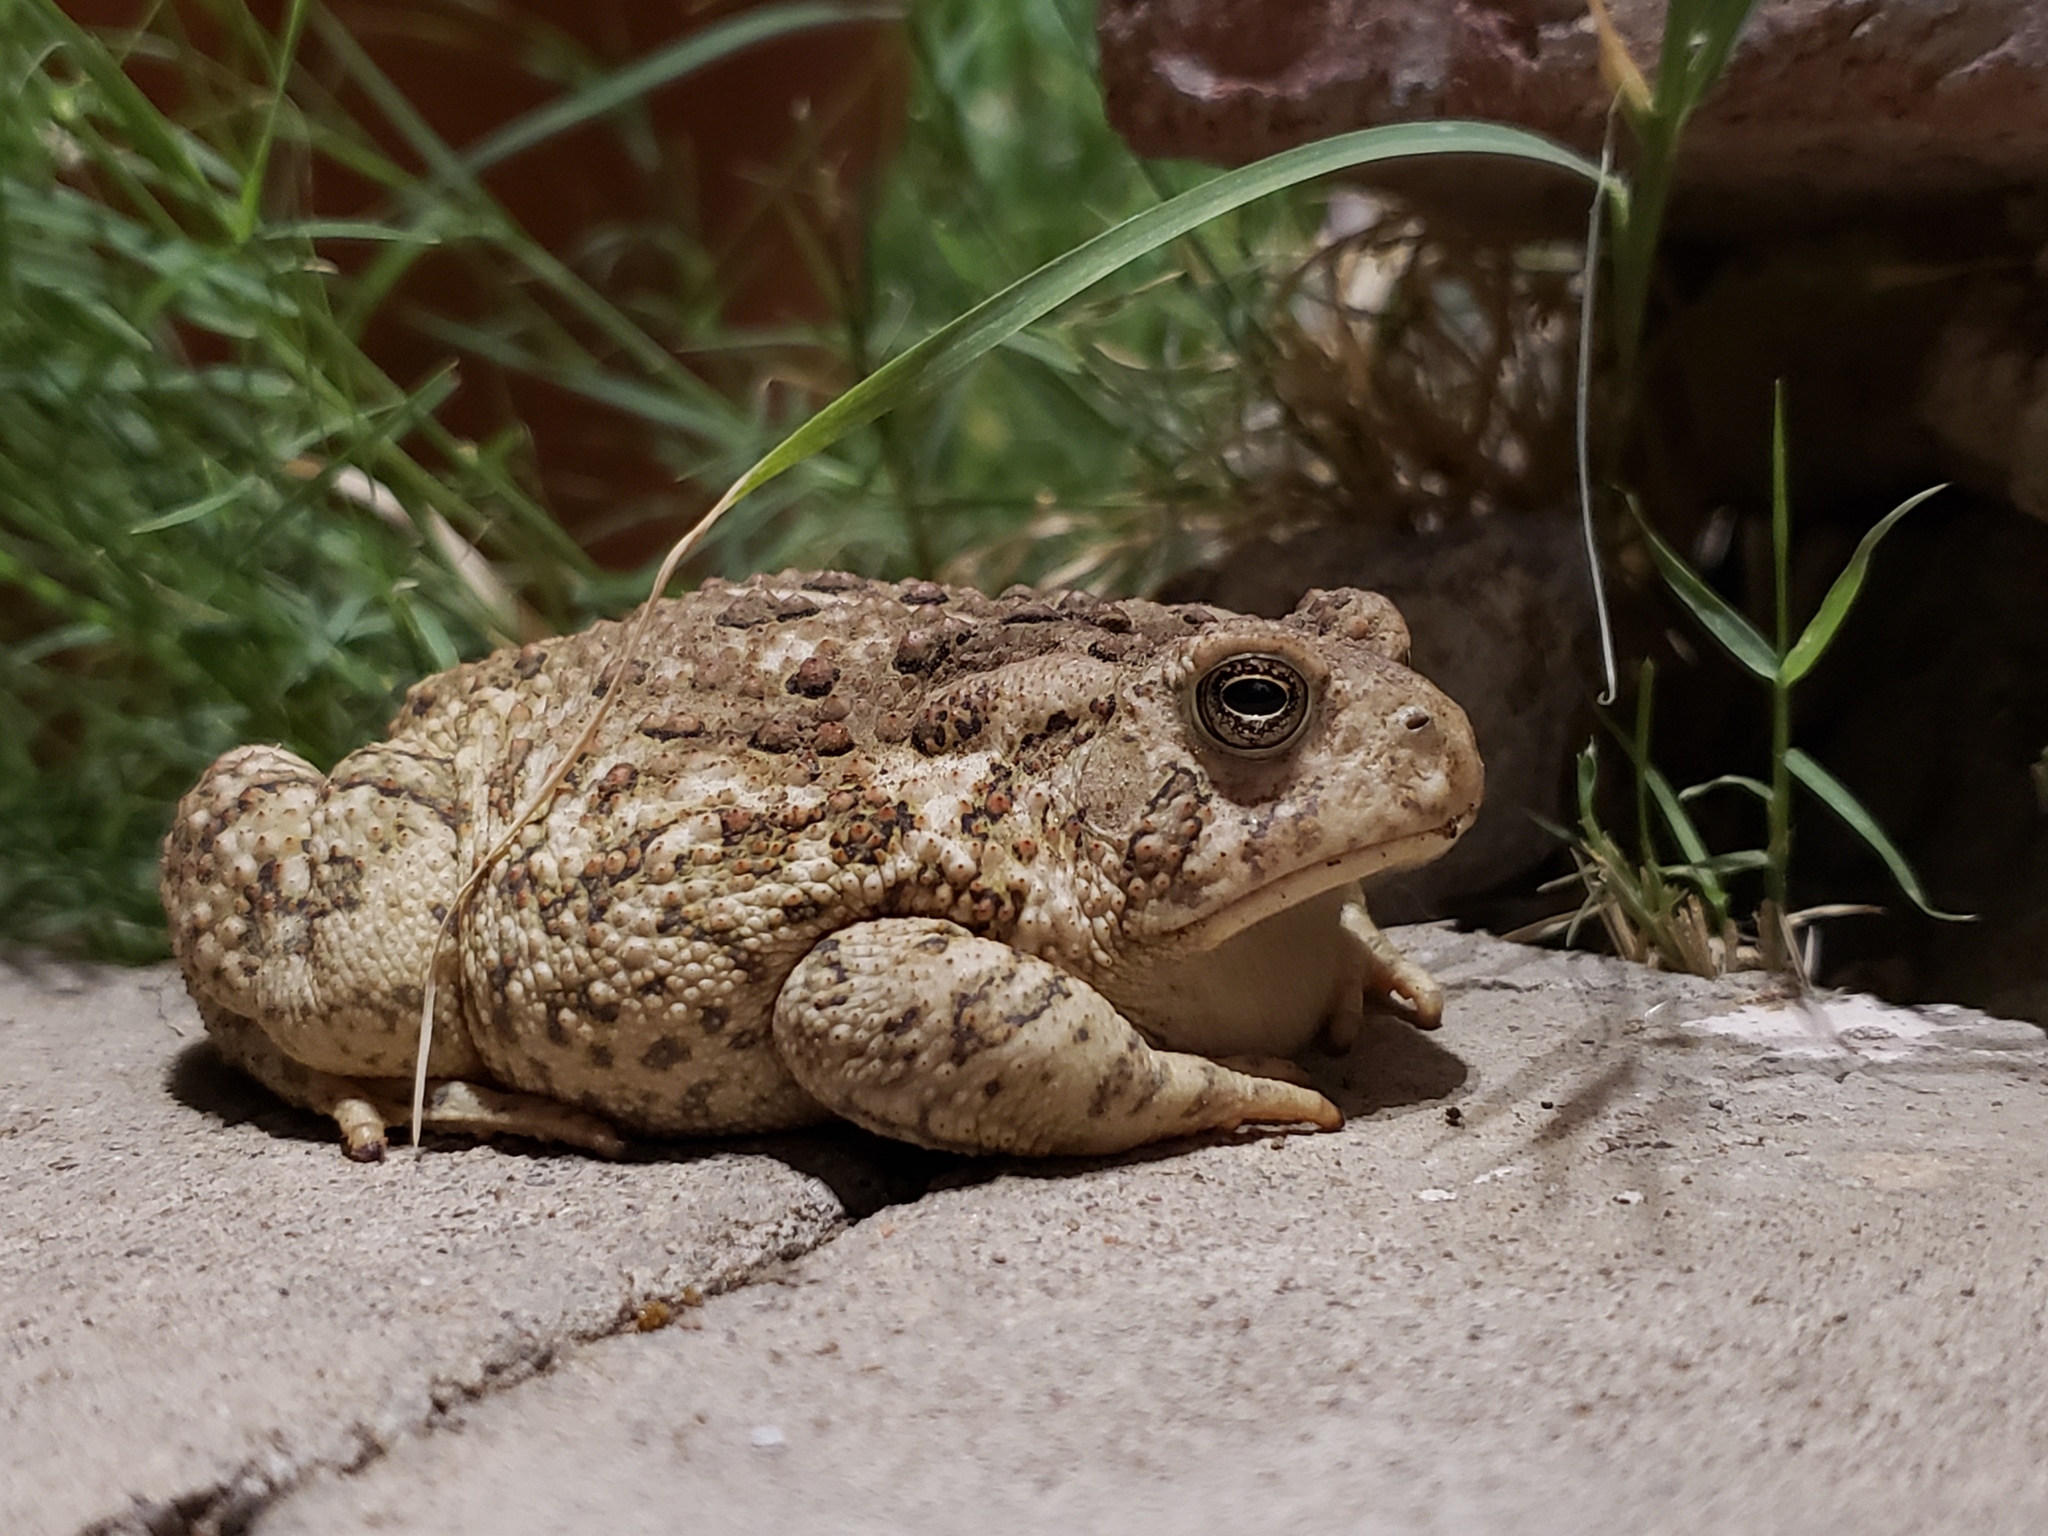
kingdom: Animalia
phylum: Chordata
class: Amphibia
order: Anura
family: Bufonidae
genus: Anaxyrus
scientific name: Anaxyrus woodhousii
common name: Woodhouse's toad
